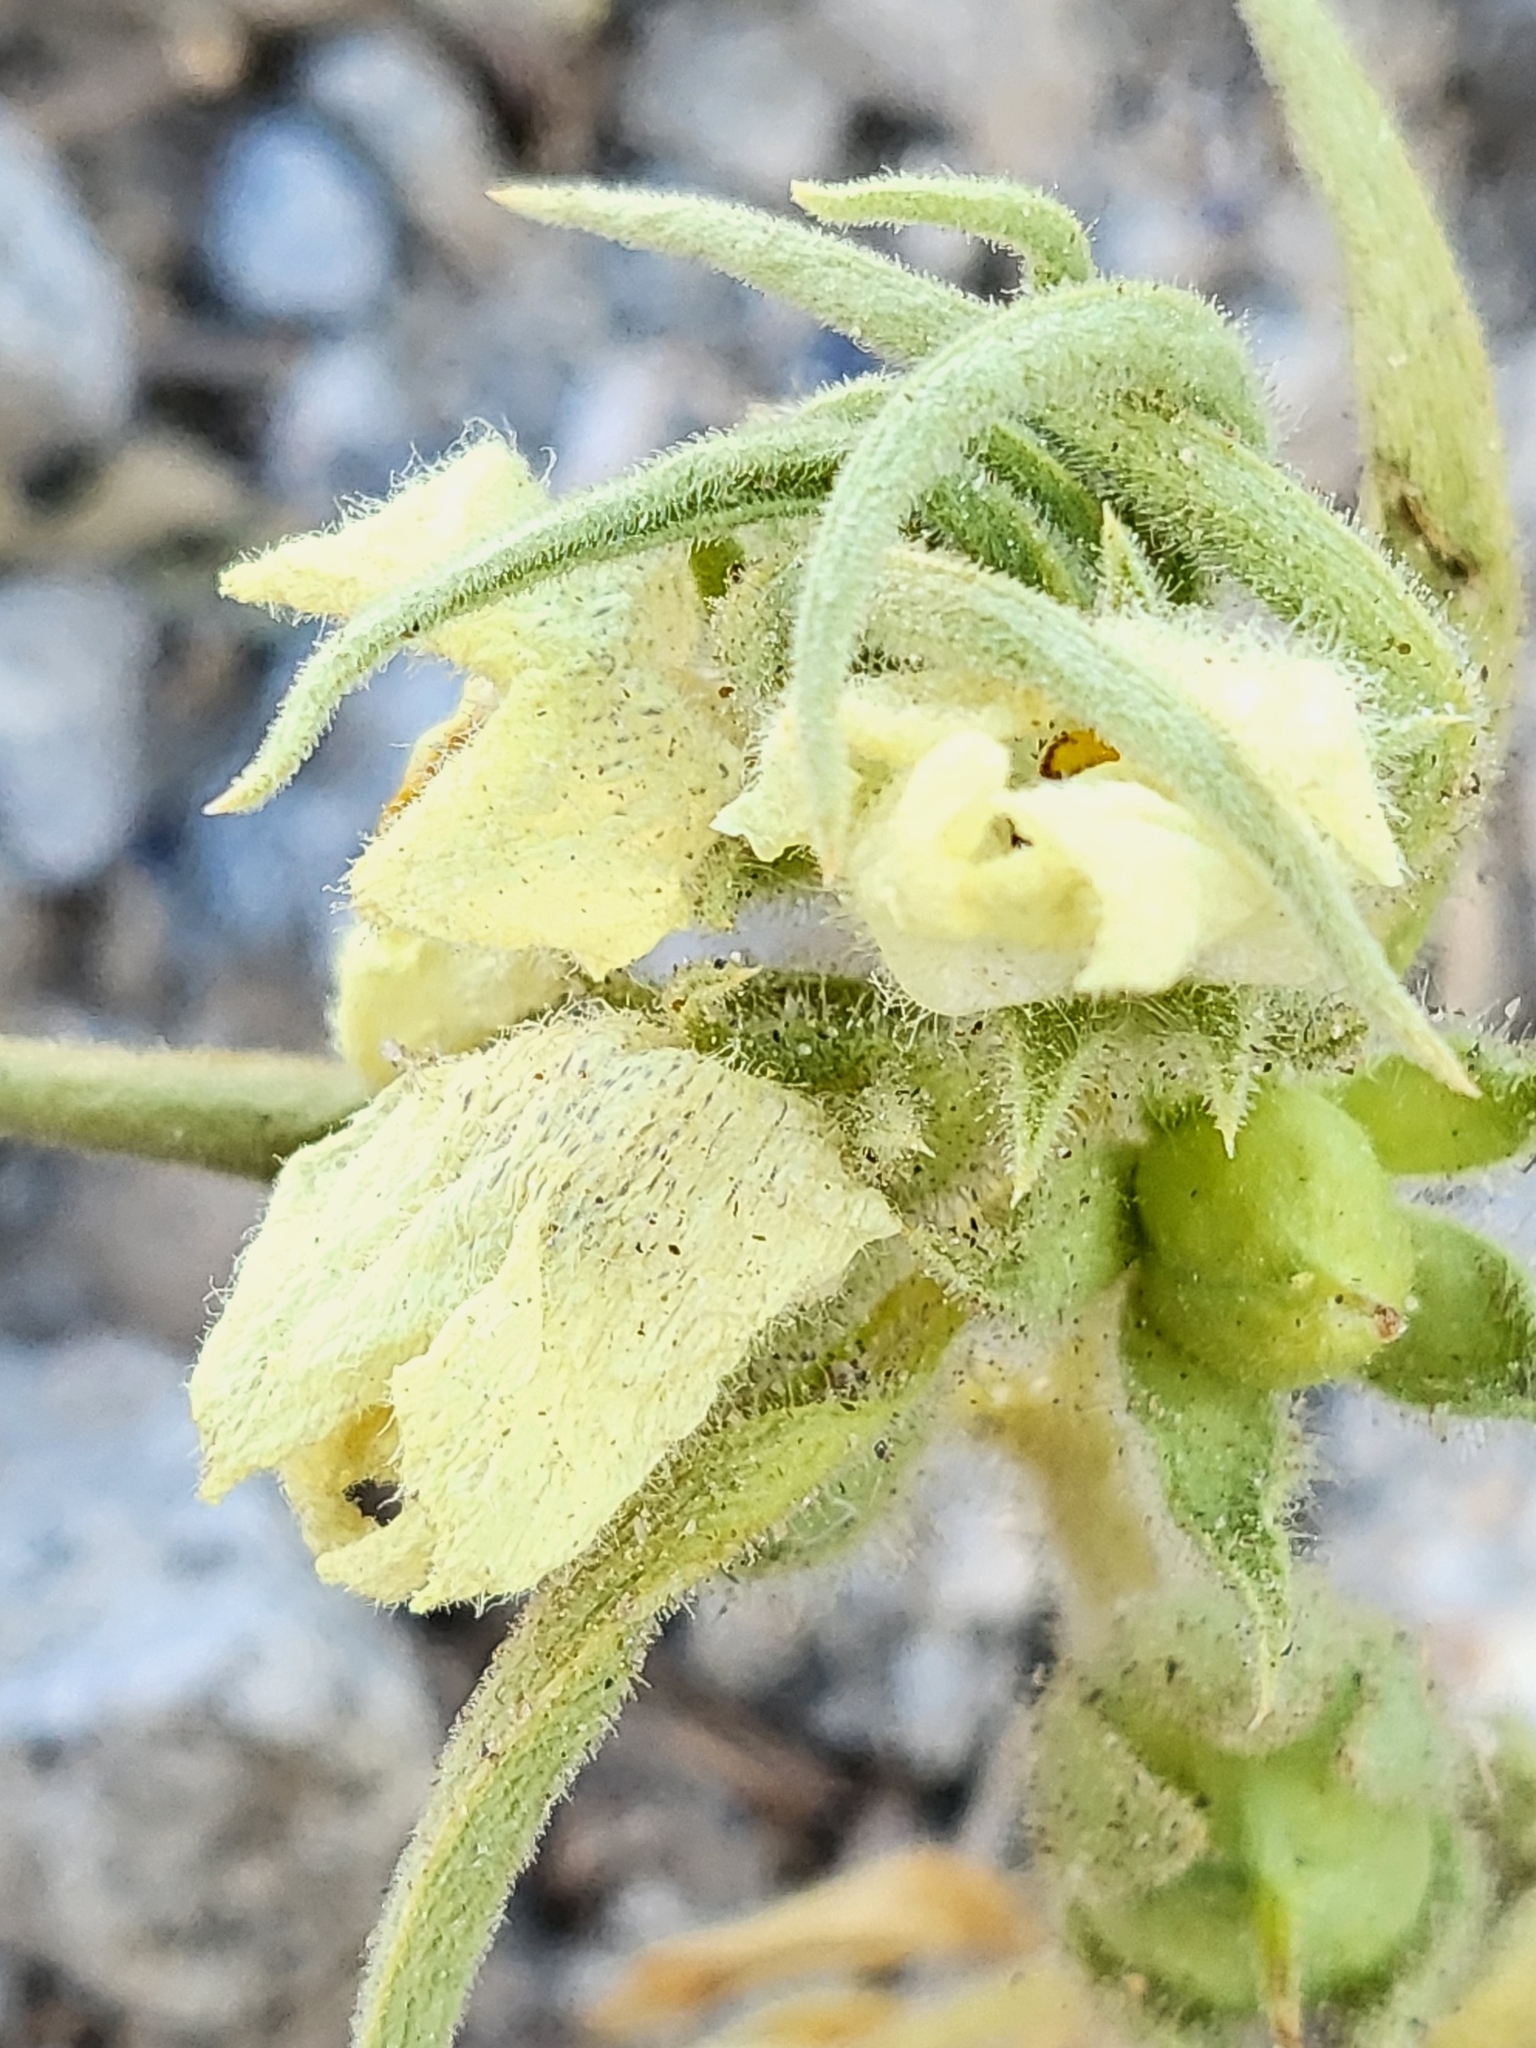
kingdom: Plantae
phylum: Tracheophyta
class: Magnoliopsida
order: Lamiales
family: Plantaginaceae
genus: Mohavea
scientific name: Mohavea confertiflora
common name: Ghost flower
